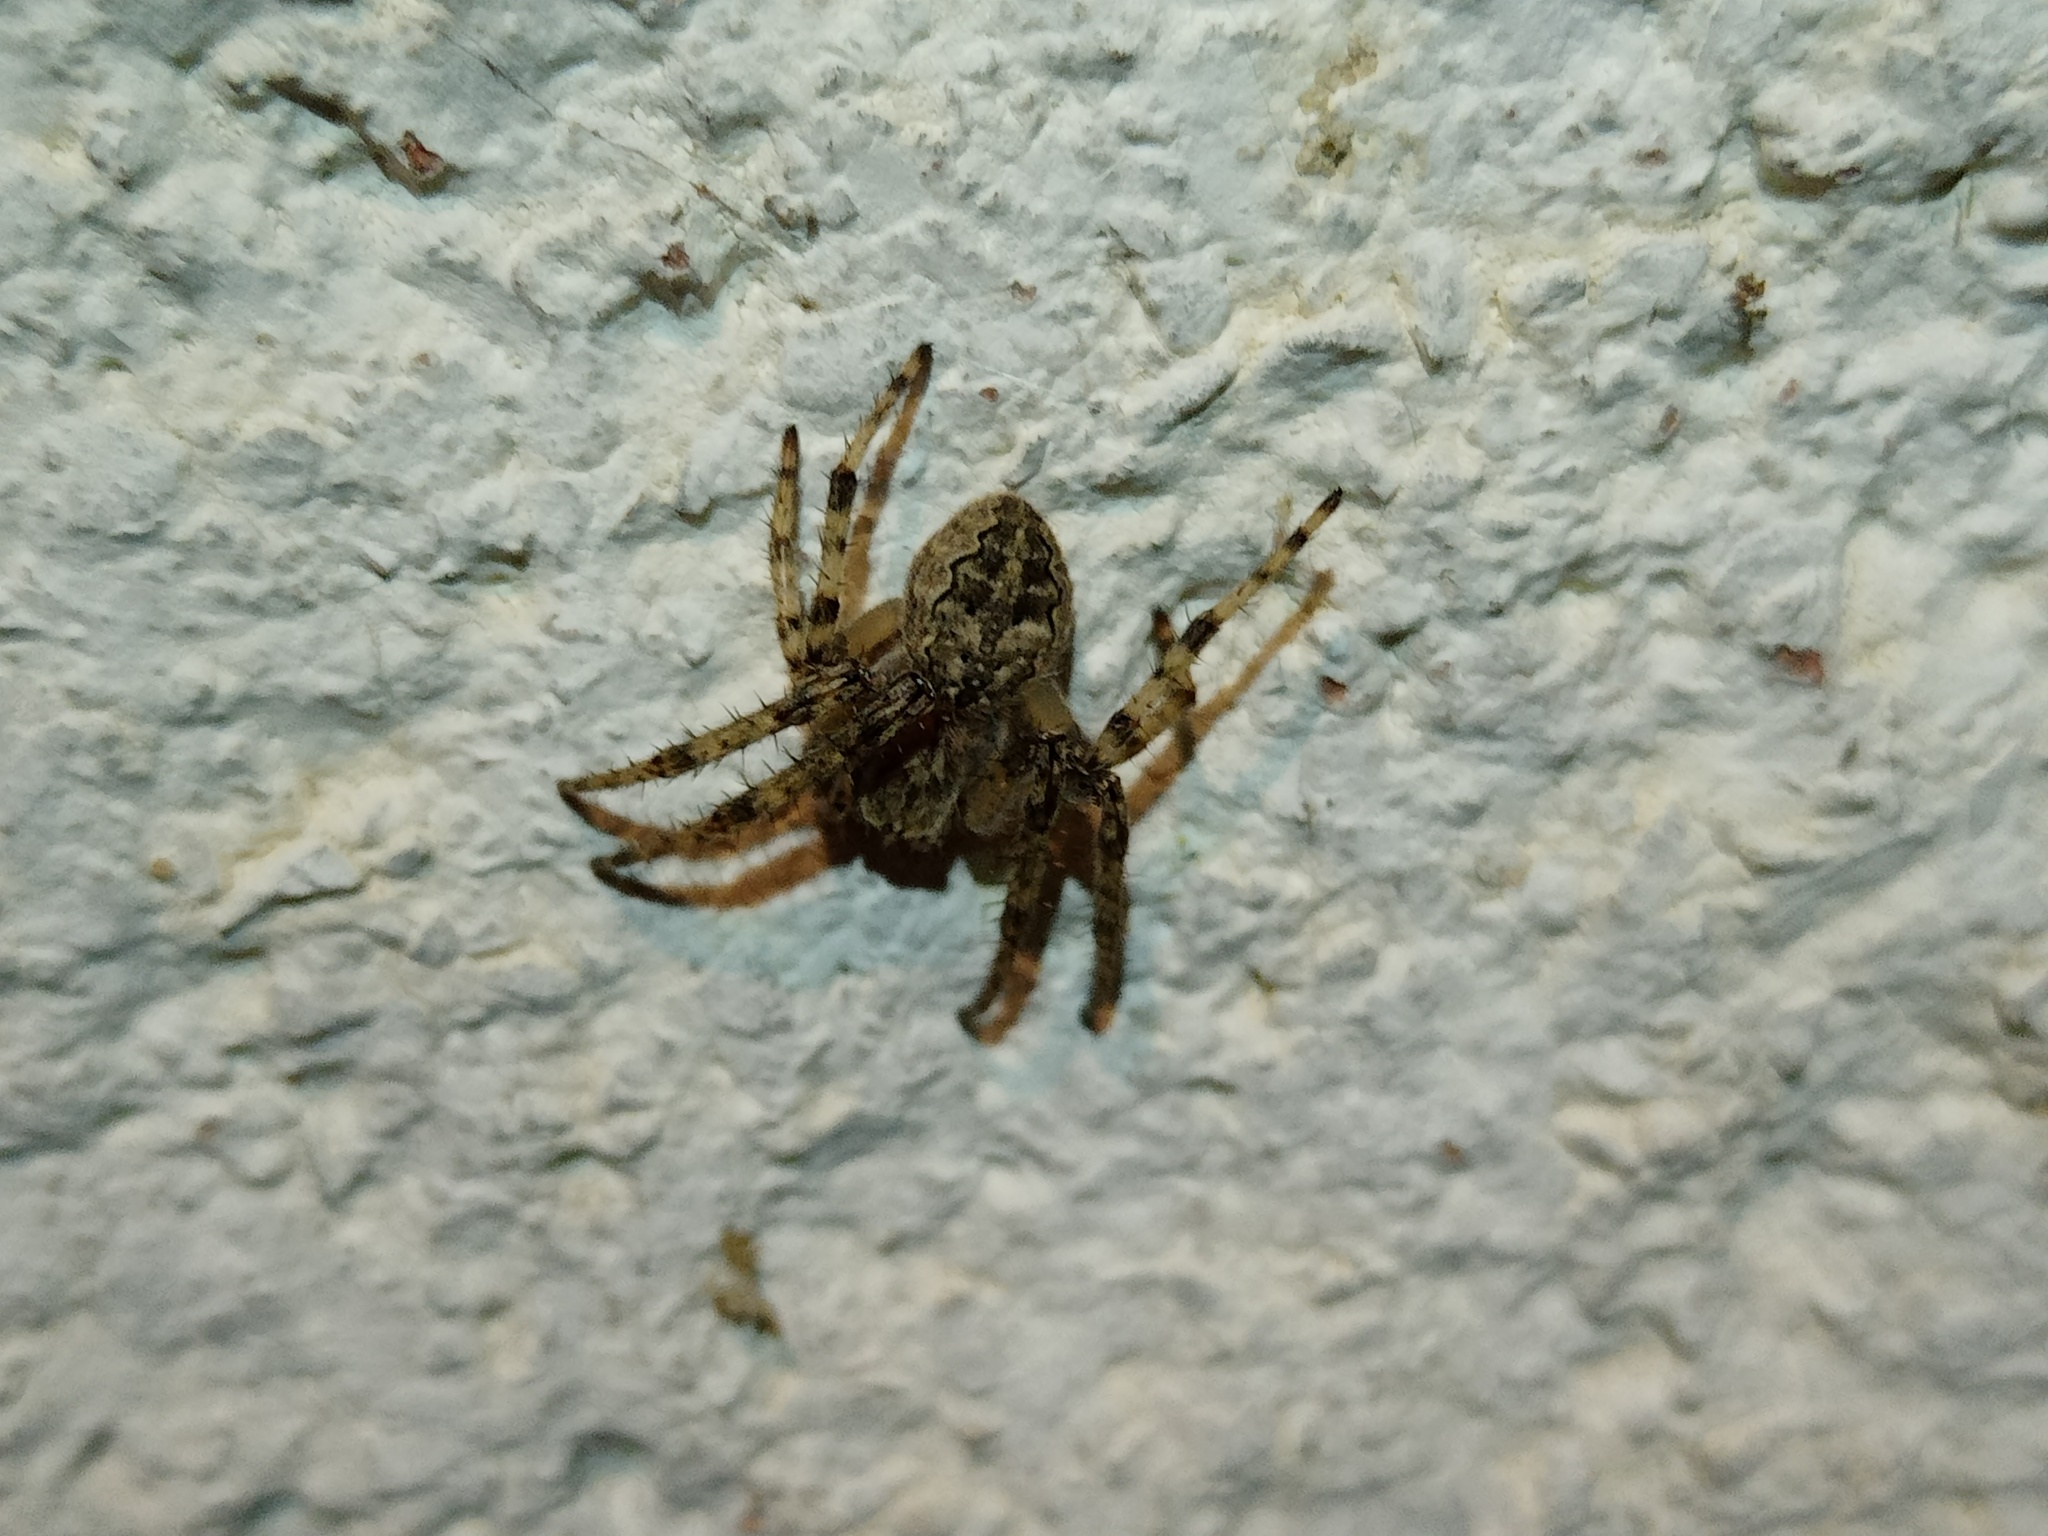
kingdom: Animalia
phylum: Arthropoda
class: Arachnida
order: Araneae
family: Araneidae
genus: Larinioides
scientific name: Larinioides ixobolus
